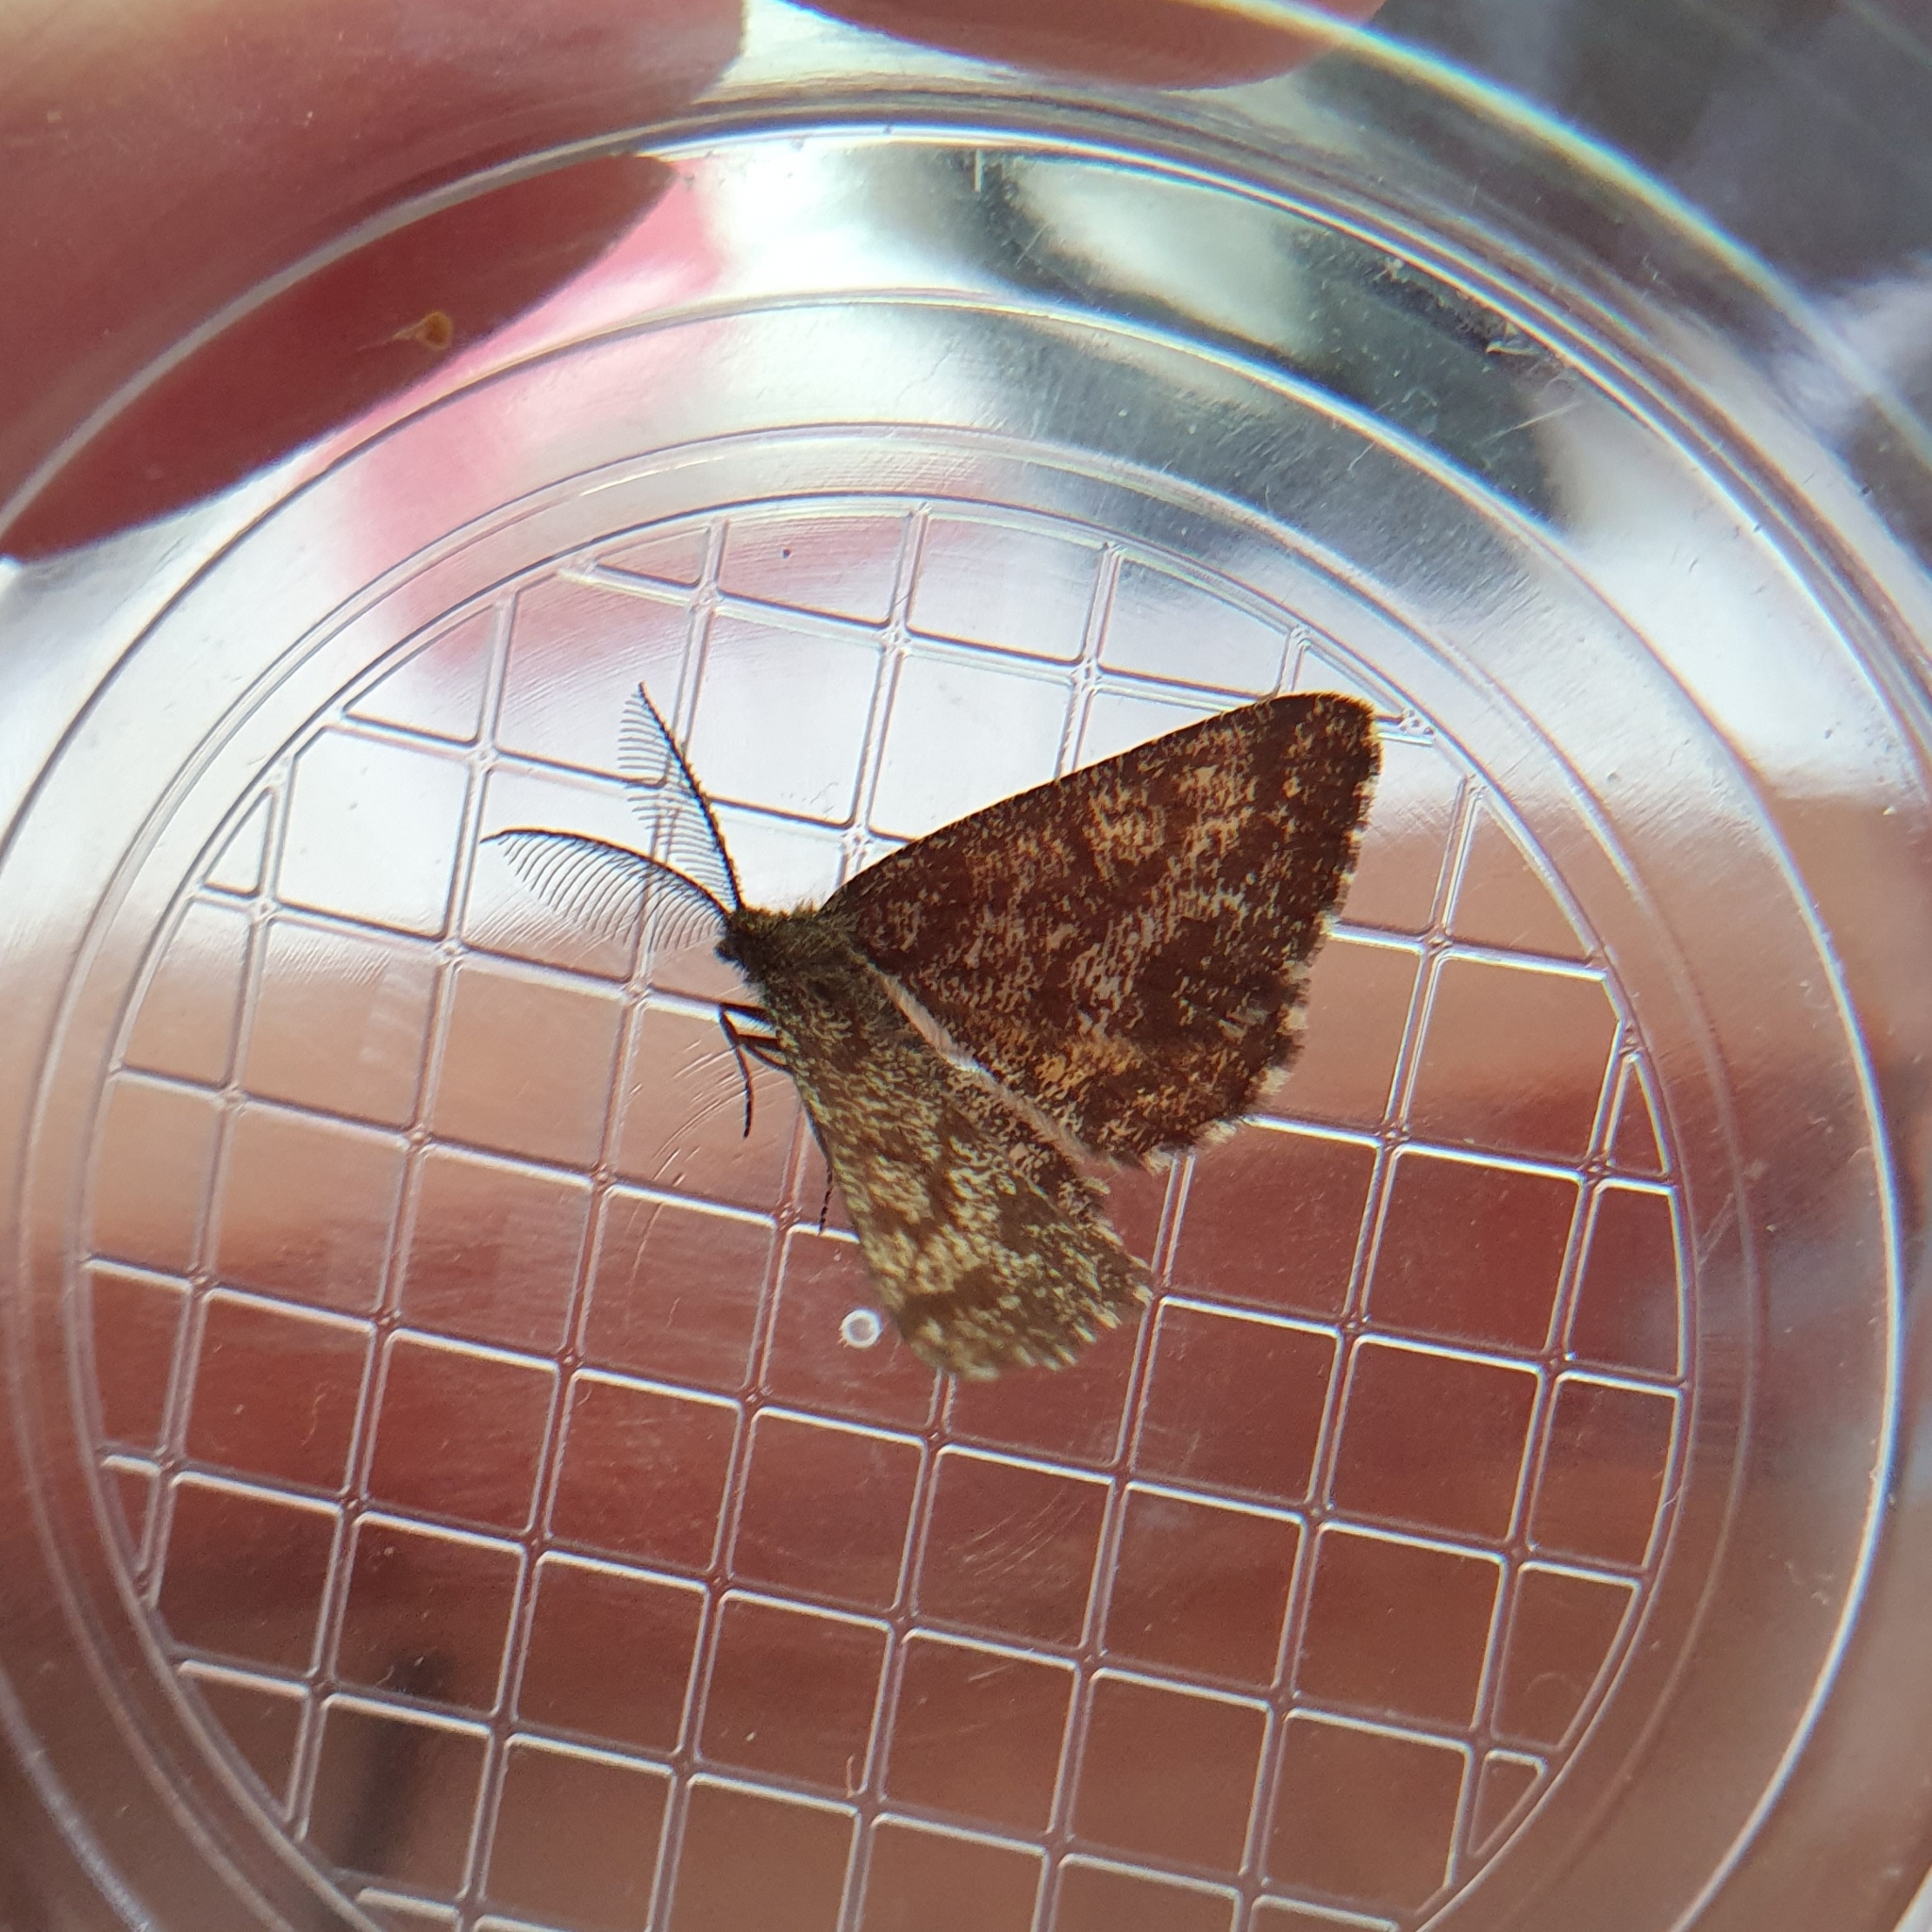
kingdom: Animalia
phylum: Arthropoda
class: Insecta
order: Lepidoptera
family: Geometridae
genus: Ematurga
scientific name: Ematurga atomaria
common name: Common heath
